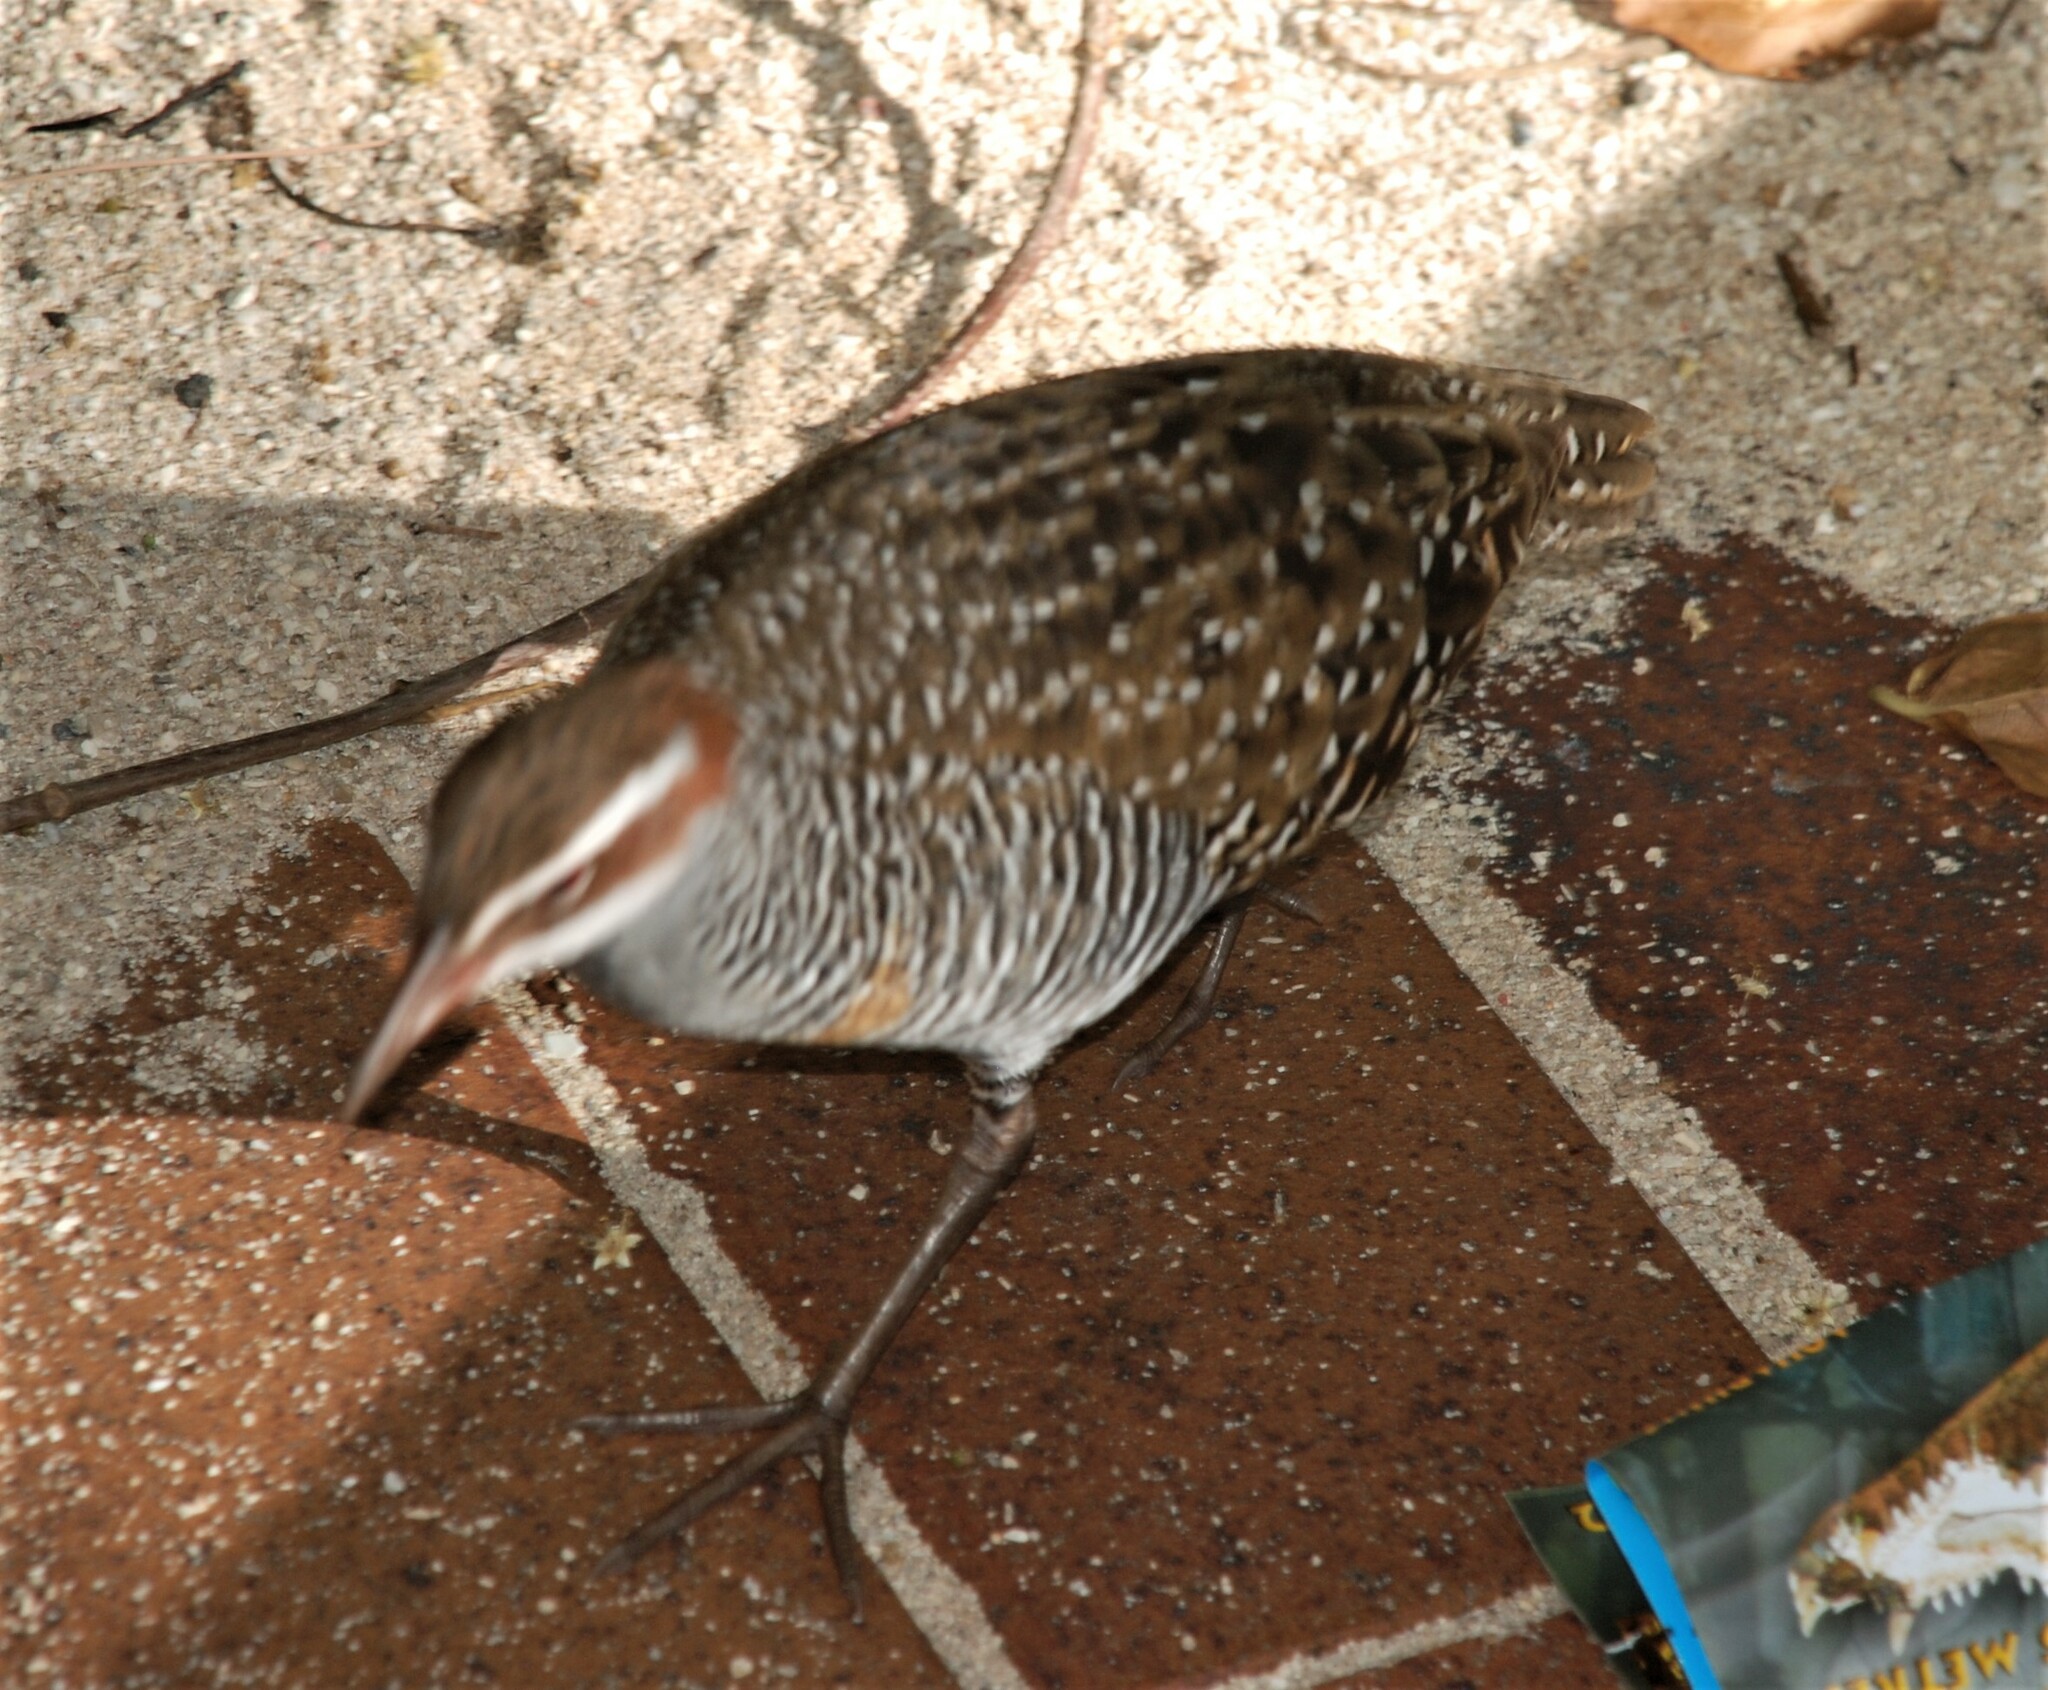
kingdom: Animalia
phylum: Chordata
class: Aves
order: Gruiformes
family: Rallidae
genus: Gallirallus
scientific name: Gallirallus philippensis
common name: Buff-banded rail
